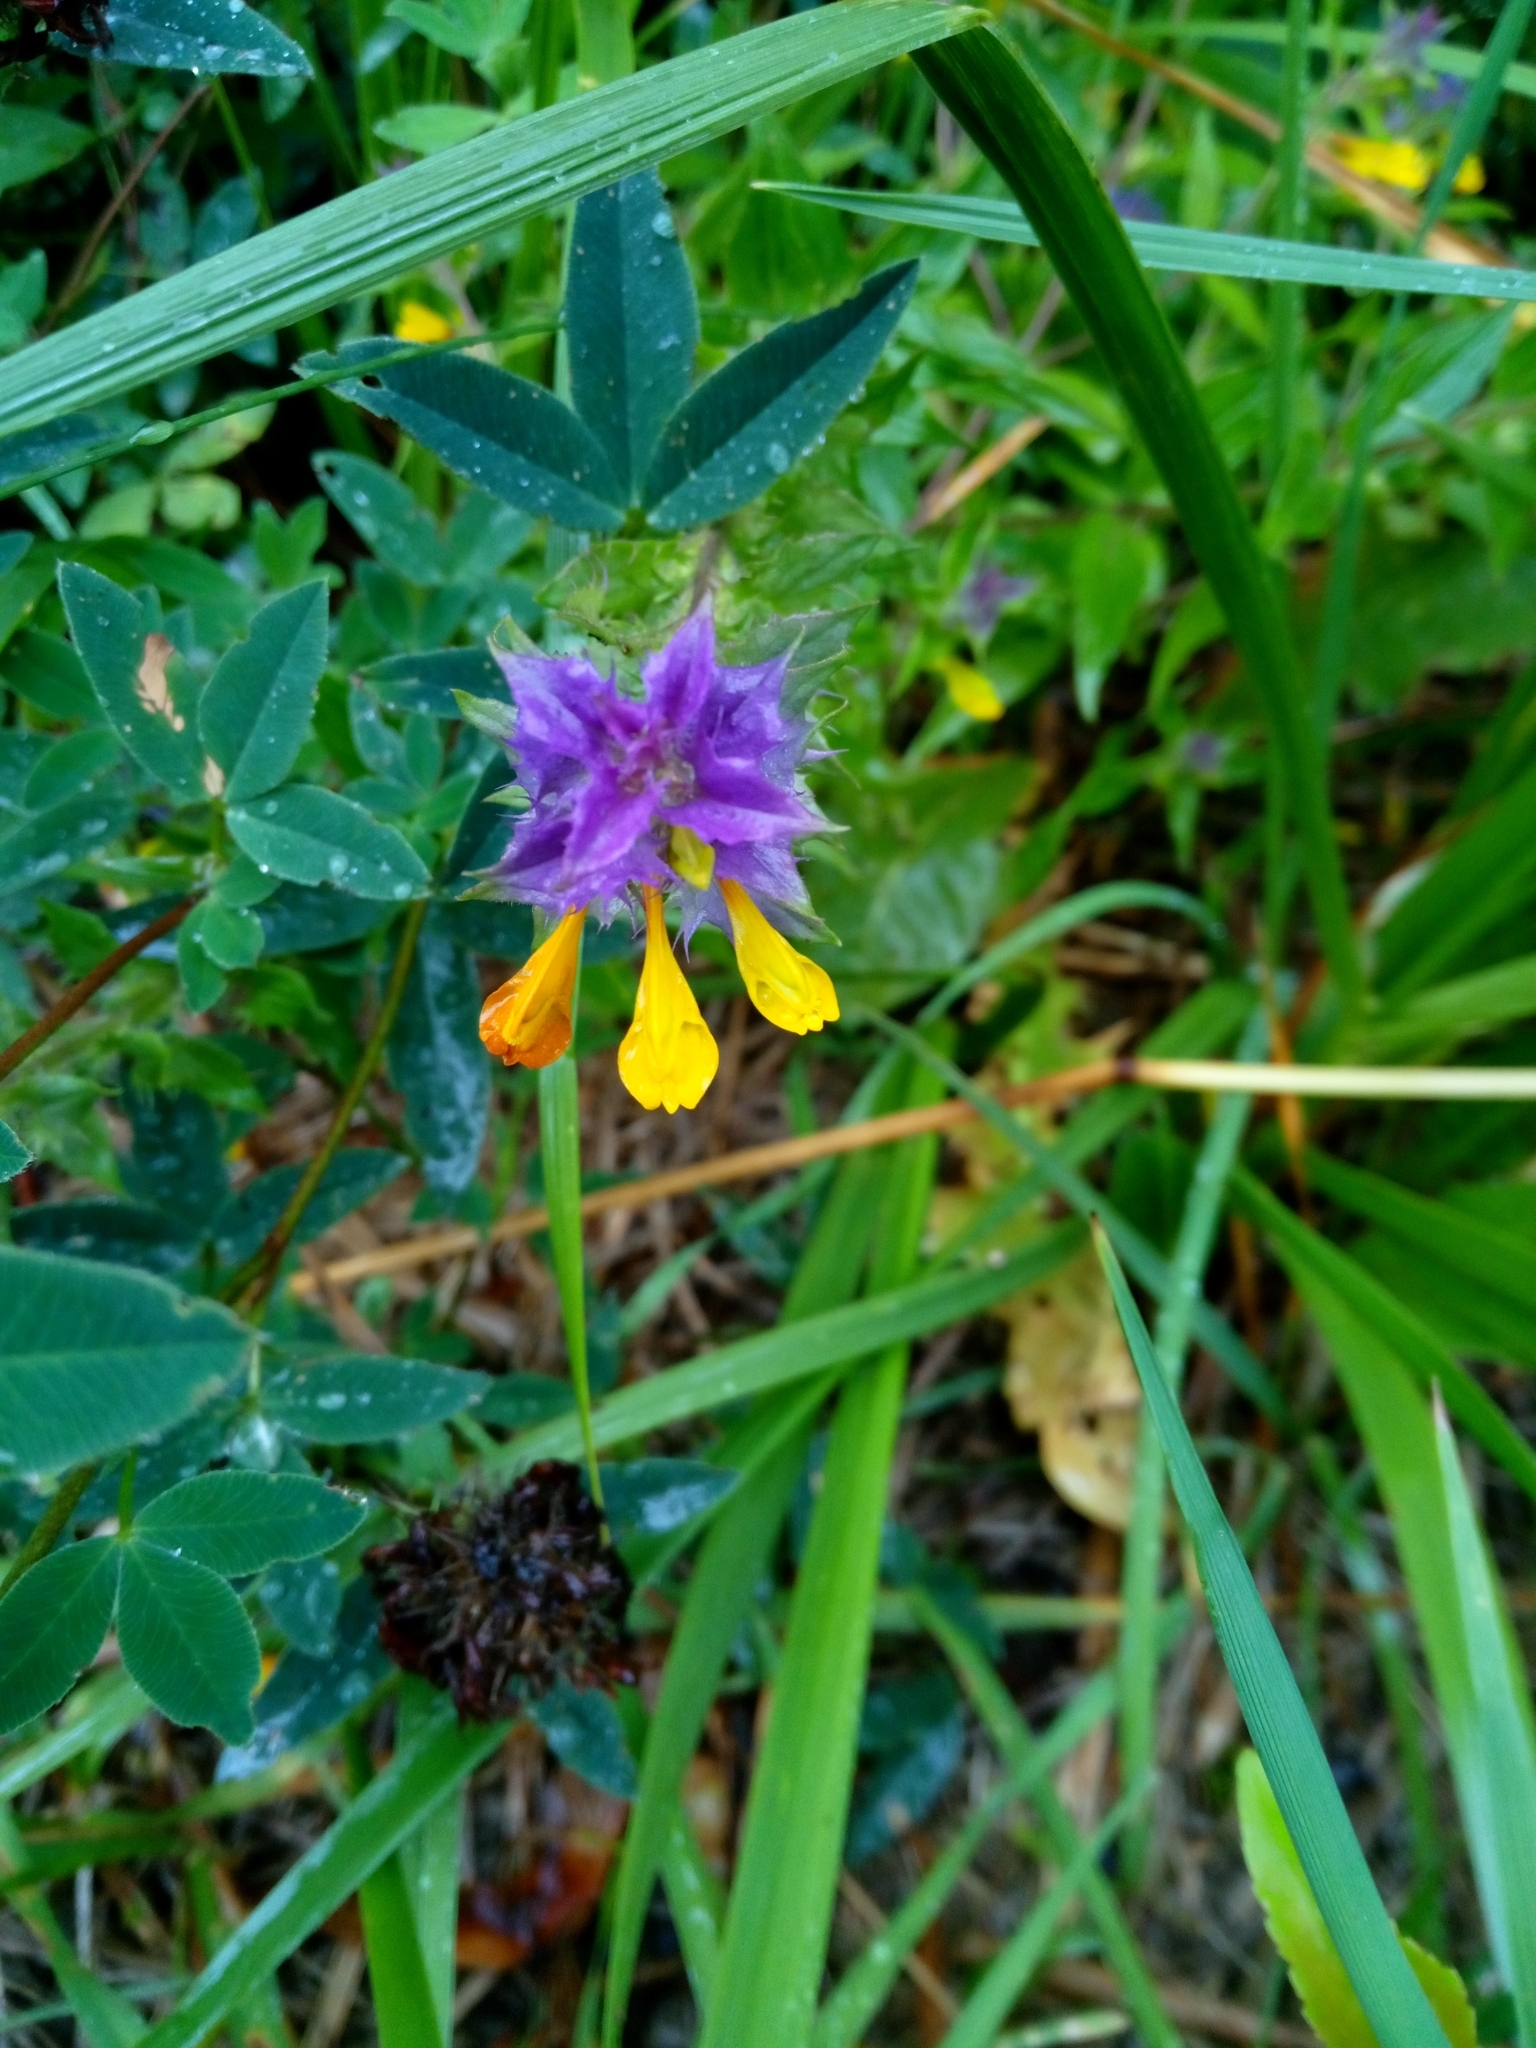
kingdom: Plantae
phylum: Tracheophyta
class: Magnoliopsida
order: Lamiales
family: Orobanchaceae
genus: Melampyrum
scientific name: Melampyrum nemorosum
